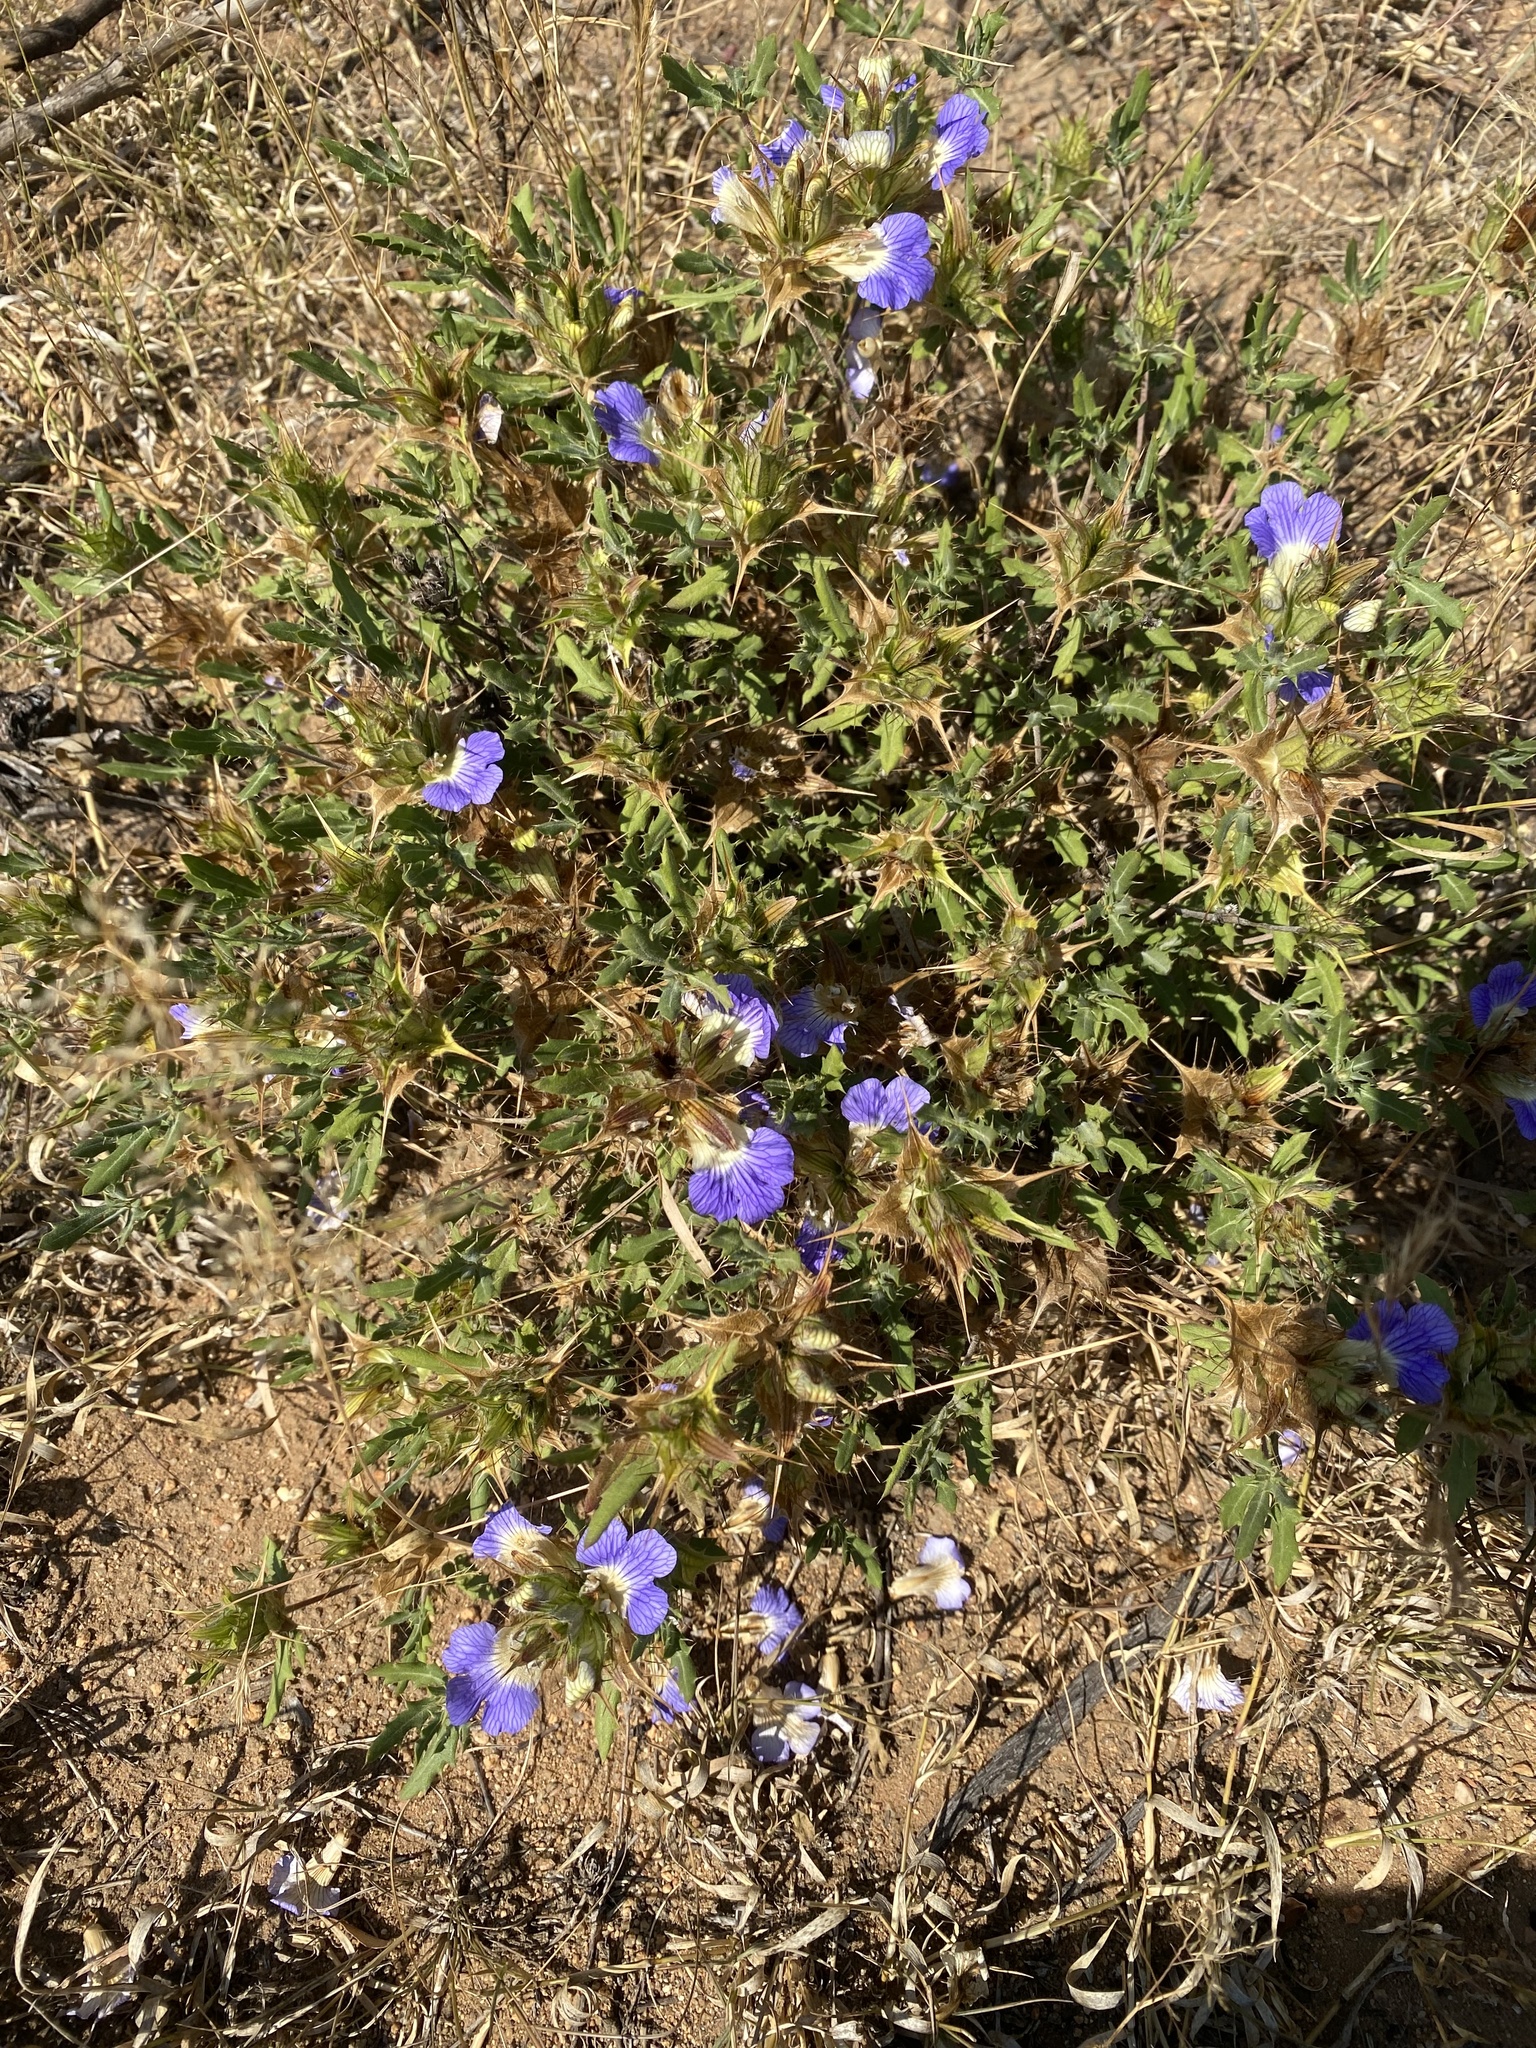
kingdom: Plantae
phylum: Tracheophyta
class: Magnoliopsida
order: Lamiales
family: Acanthaceae
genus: Blepharis
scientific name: Blepharis subvolubilis
